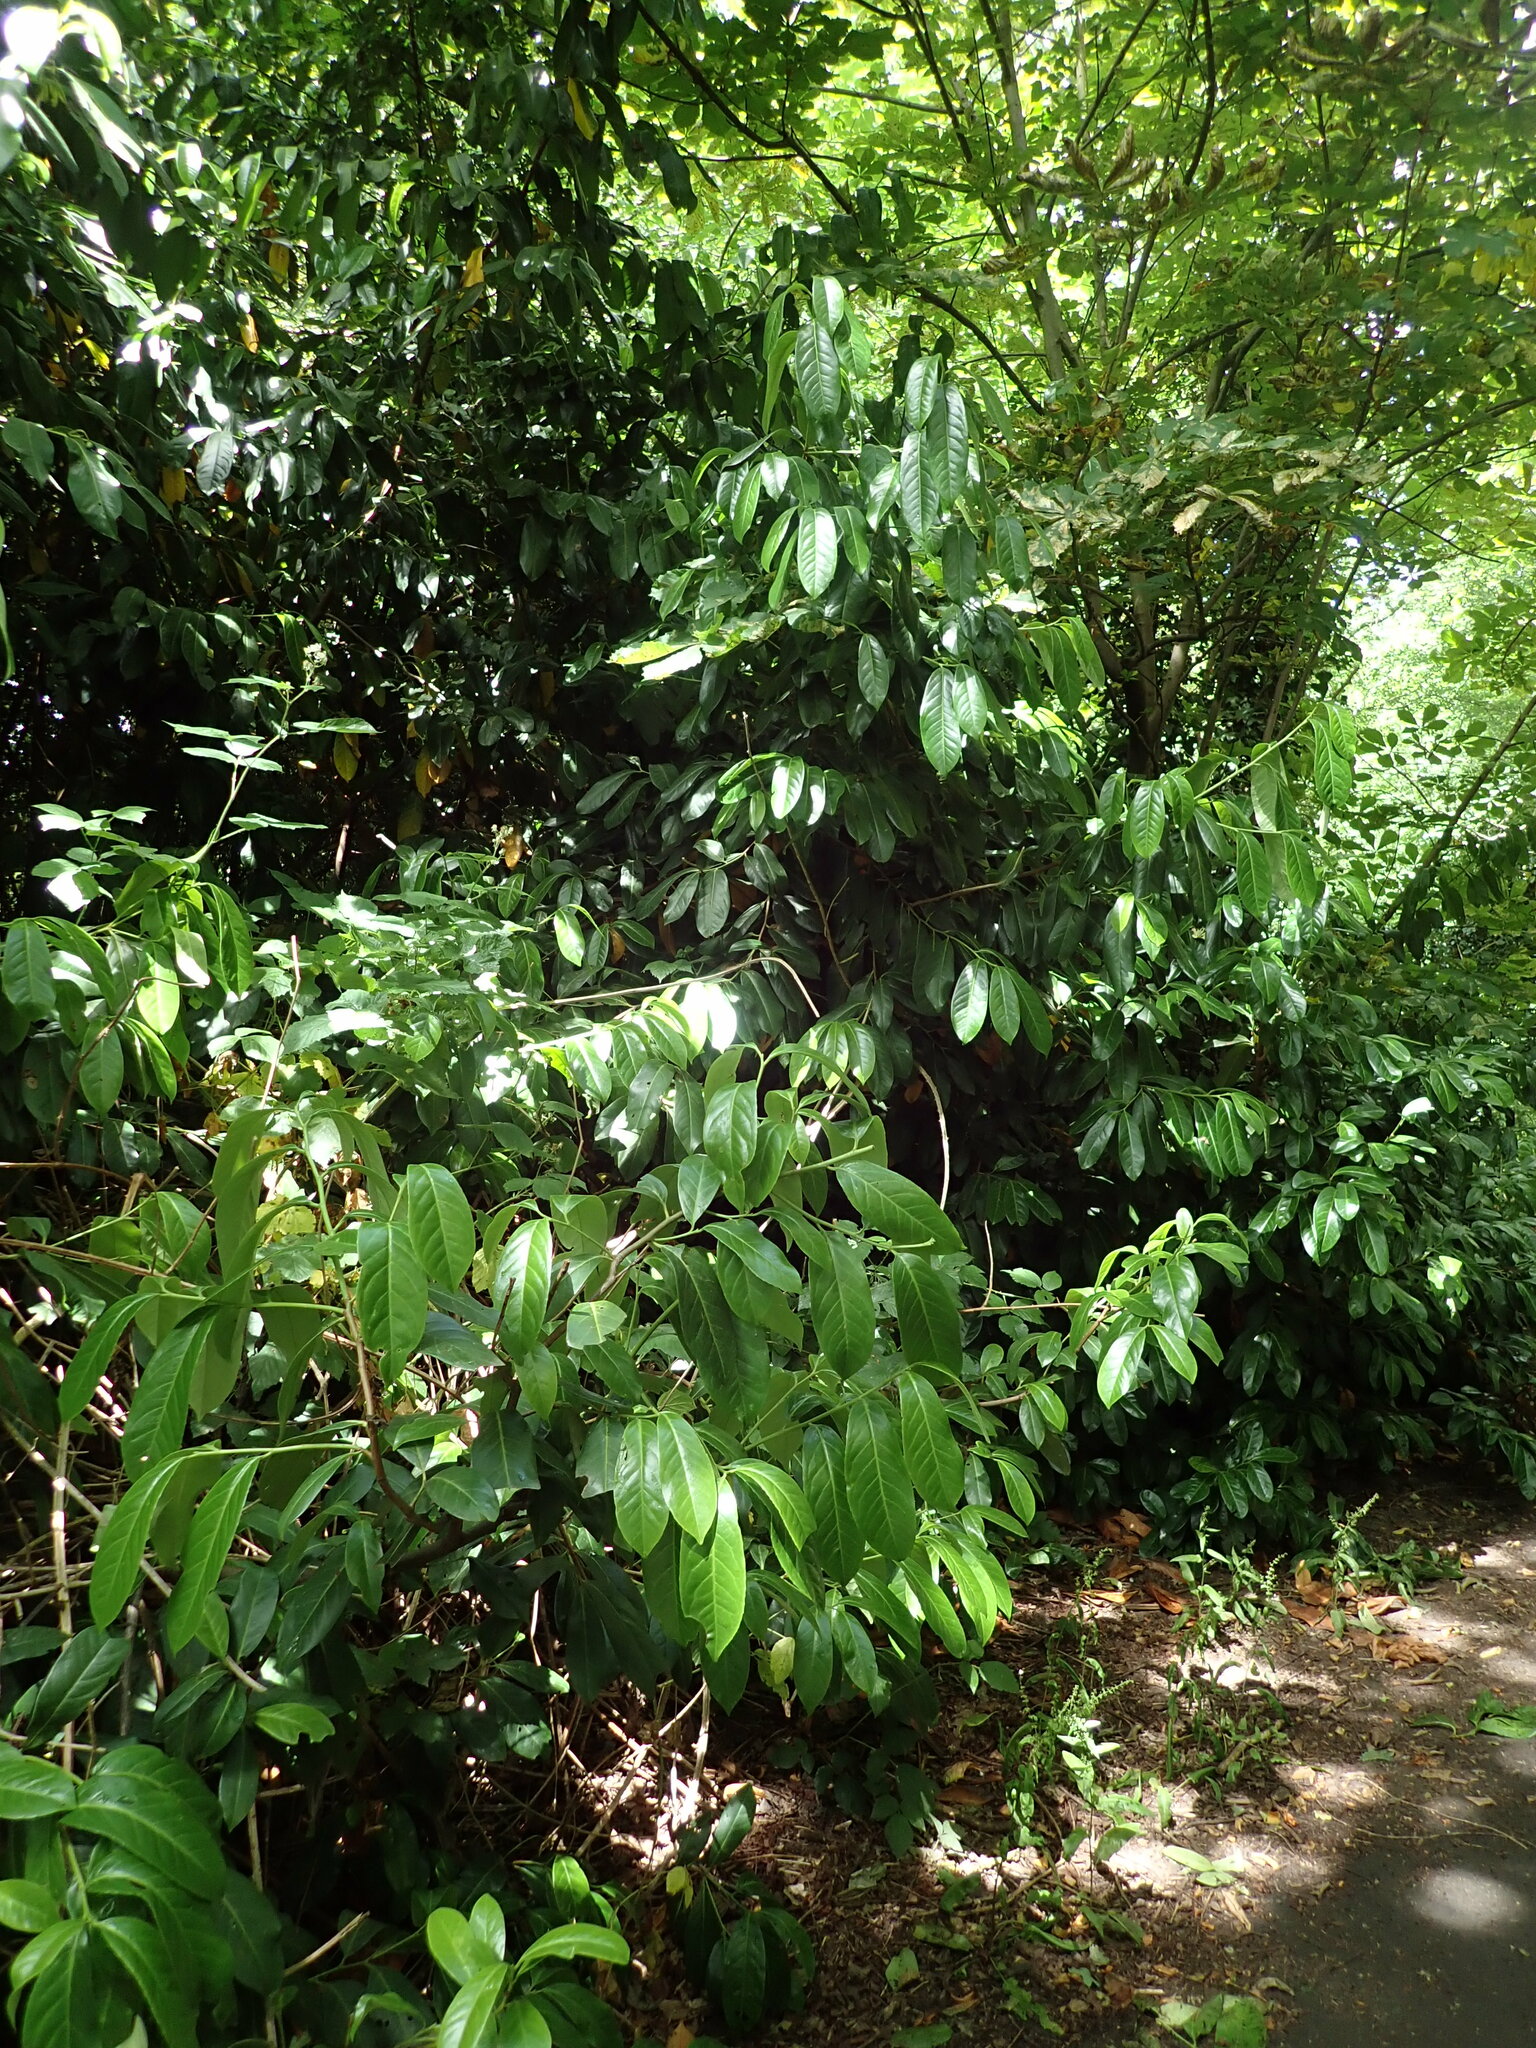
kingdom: Plantae
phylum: Tracheophyta
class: Magnoliopsida
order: Rosales
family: Rosaceae
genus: Prunus
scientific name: Prunus laurocerasus
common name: Cherry laurel
